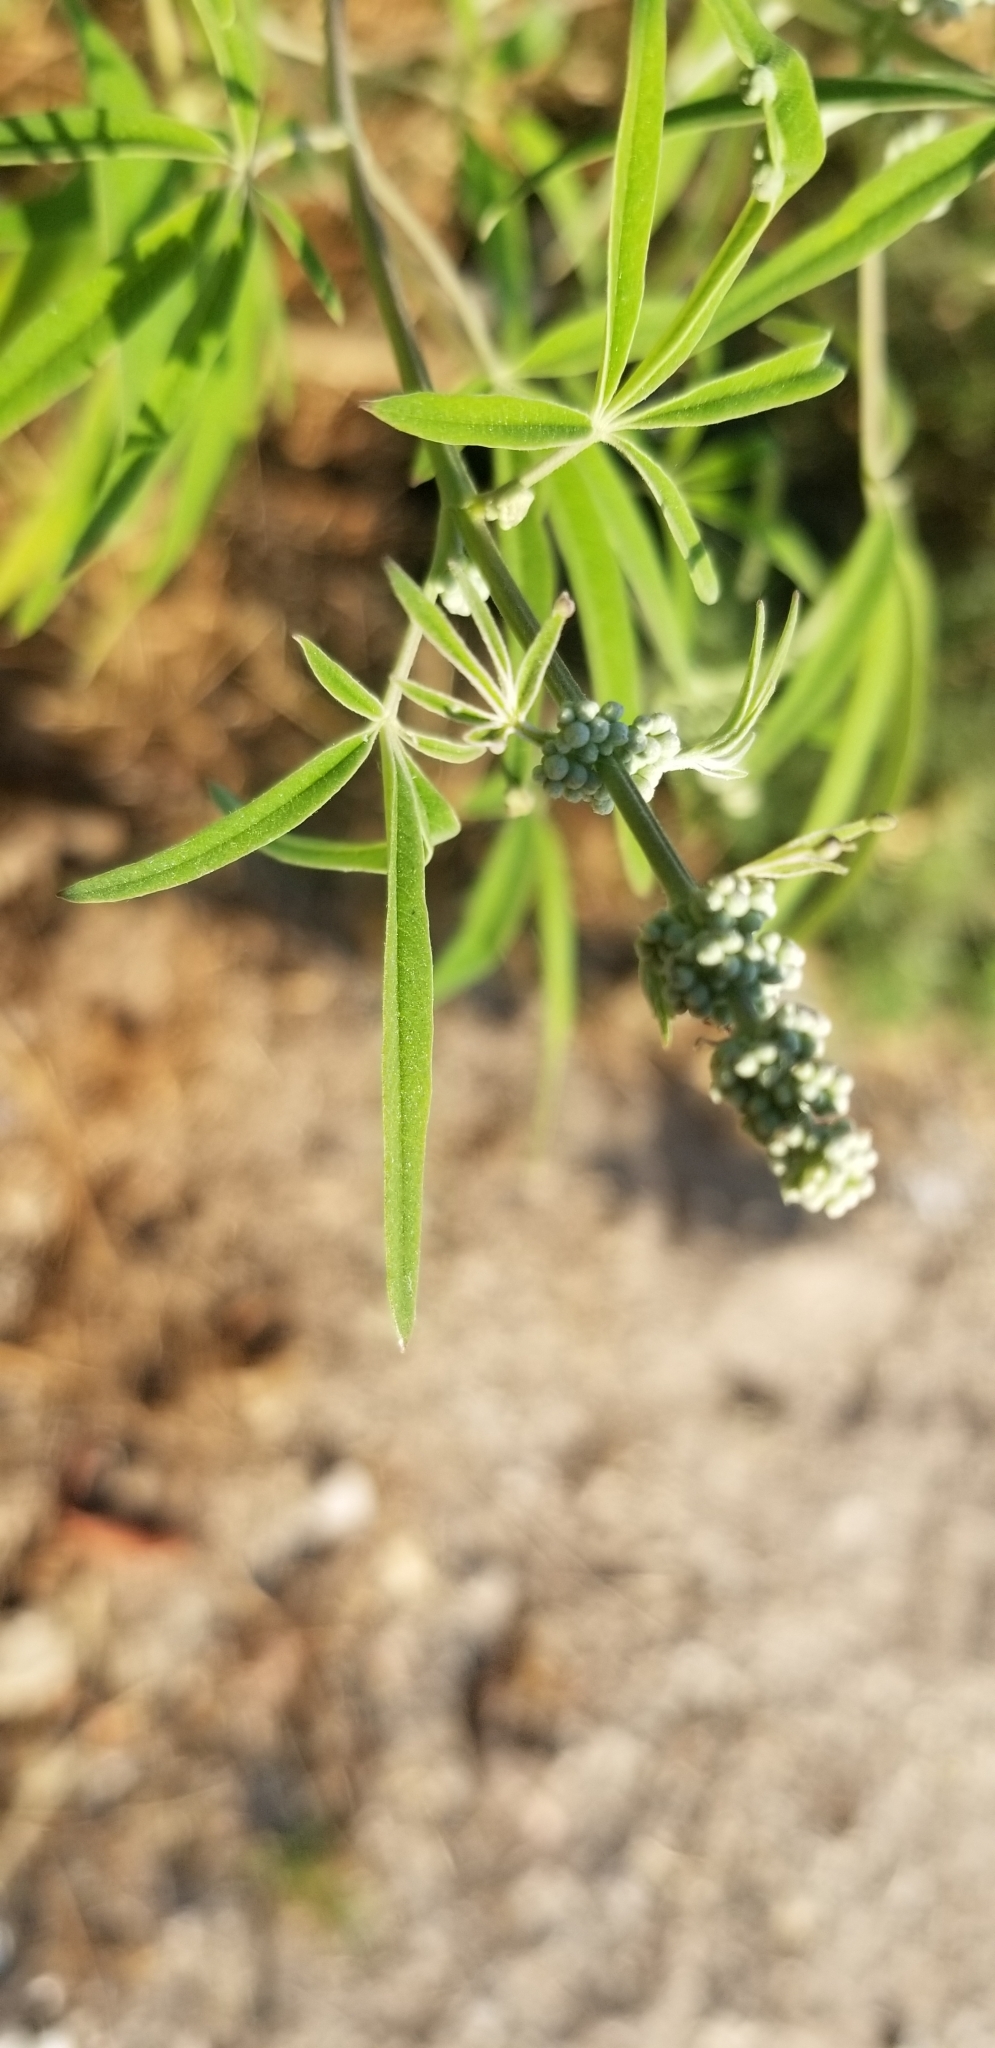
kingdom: Plantae
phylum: Tracheophyta
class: Magnoliopsida
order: Lamiales
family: Lamiaceae
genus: Vitex
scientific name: Vitex agnus-castus
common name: Chasteberry
